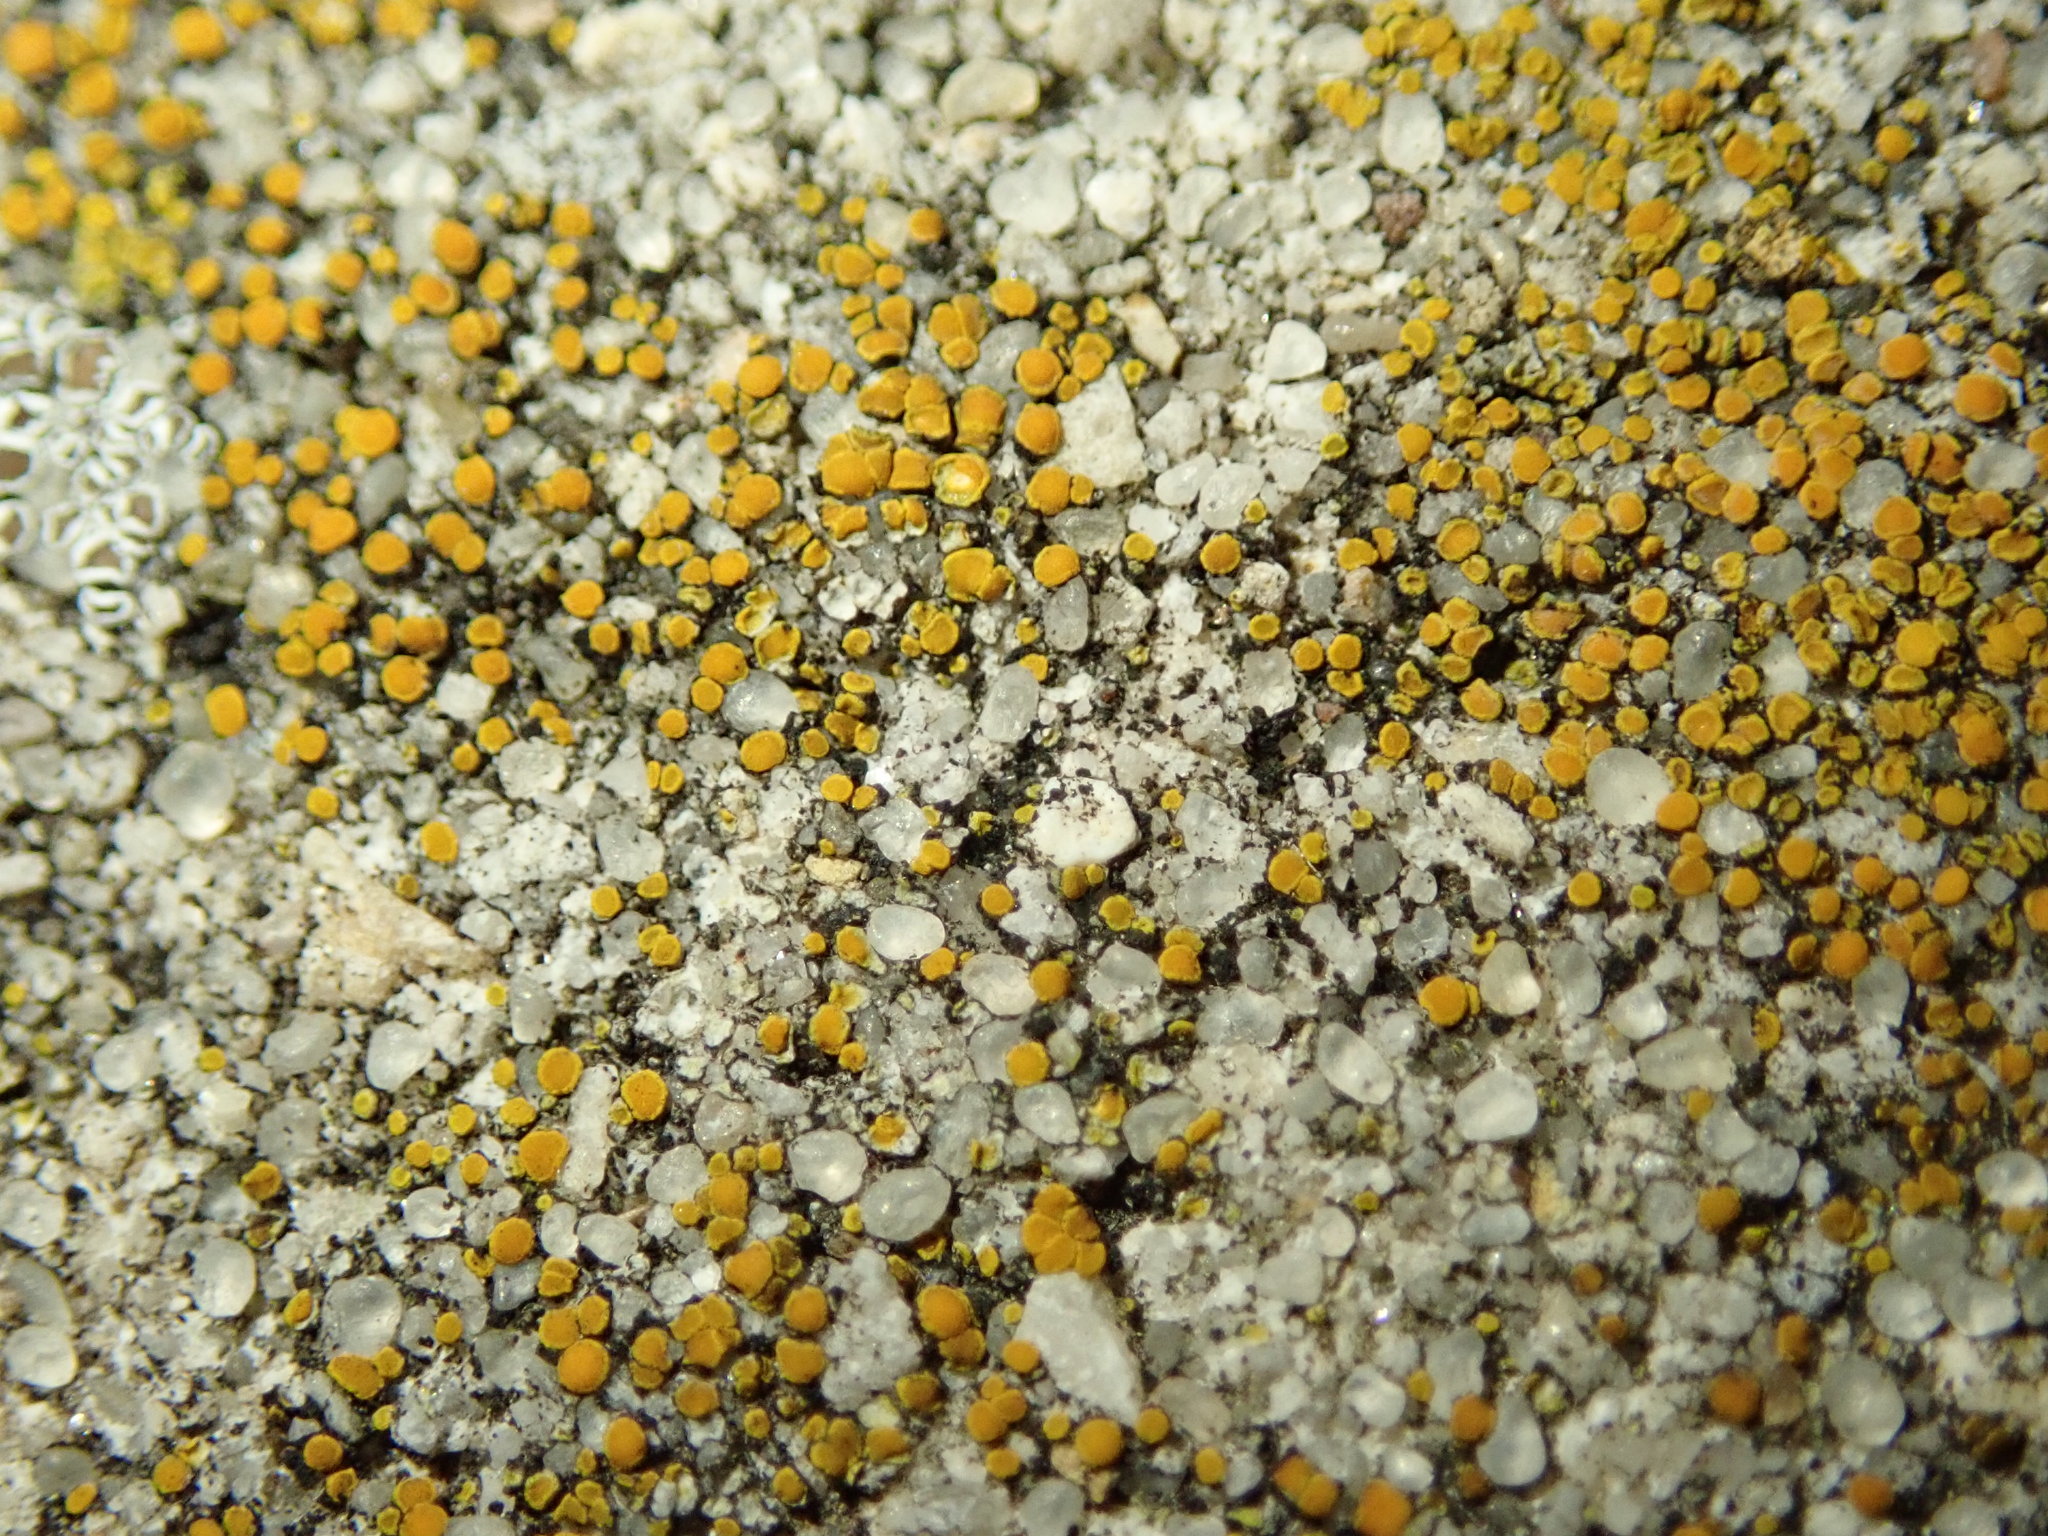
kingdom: Fungi
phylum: Ascomycota
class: Lecanoromycetes
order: Teloschistales
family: Teloschistaceae
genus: Xanthocarpia
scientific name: Xanthocarpia feracissima
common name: Sidewalk firedot
